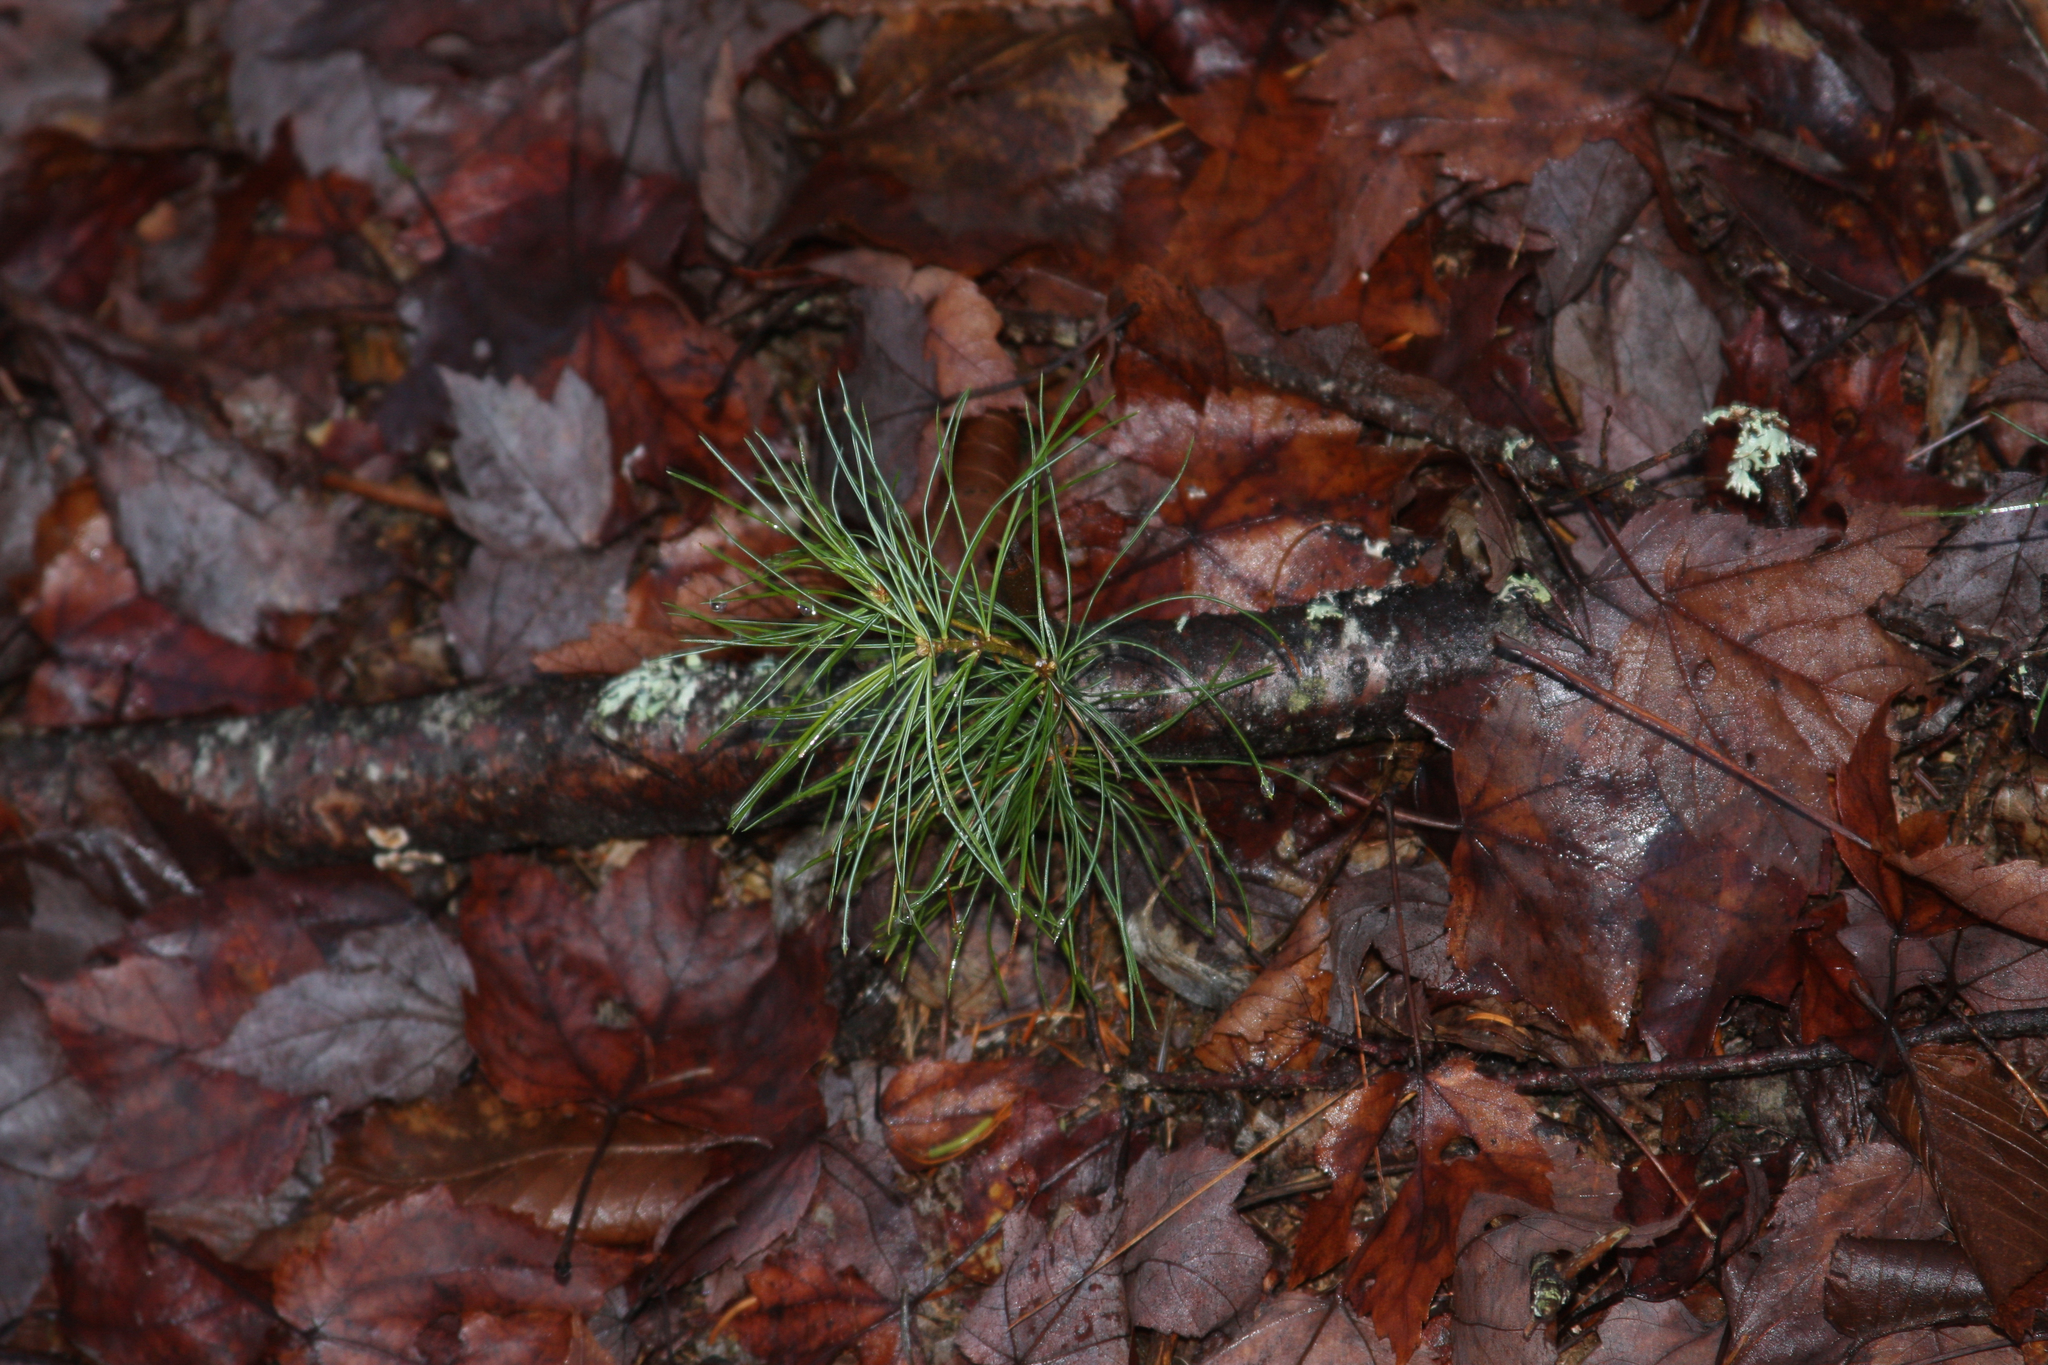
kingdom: Plantae
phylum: Tracheophyta
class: Pinopsida
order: Pinales
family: Pinaceae
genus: Pinus
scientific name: Pinus strobus
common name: Weymouth pine
